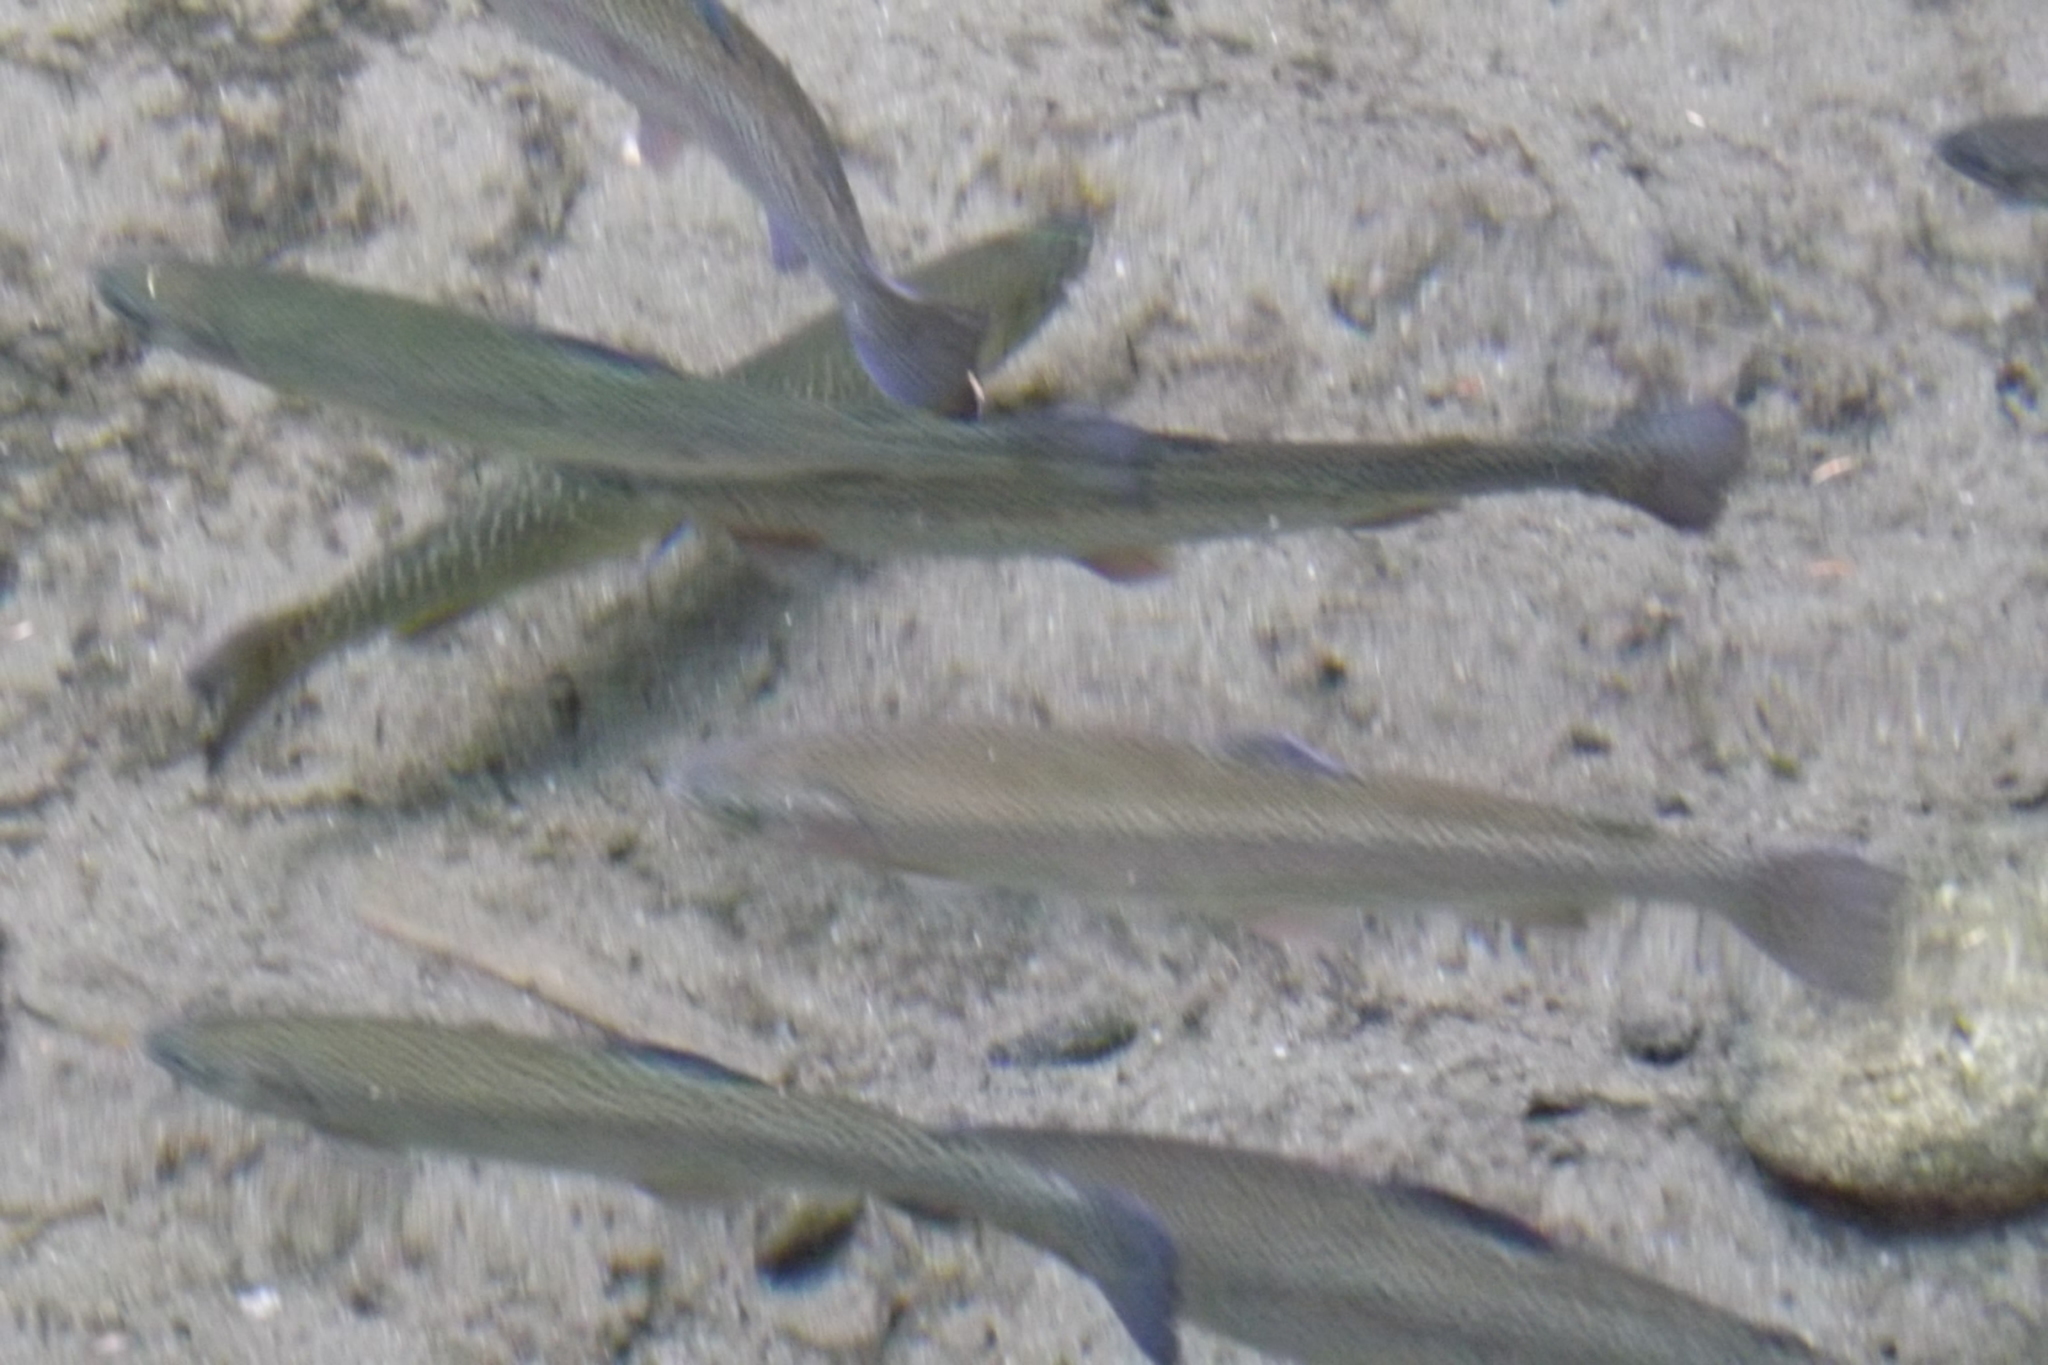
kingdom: Animalia
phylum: Chordata
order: Salmoniformes
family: Salmonidae
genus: Oncorhynchus
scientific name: Oncorhynchus mykiss
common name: Rainbow trout
